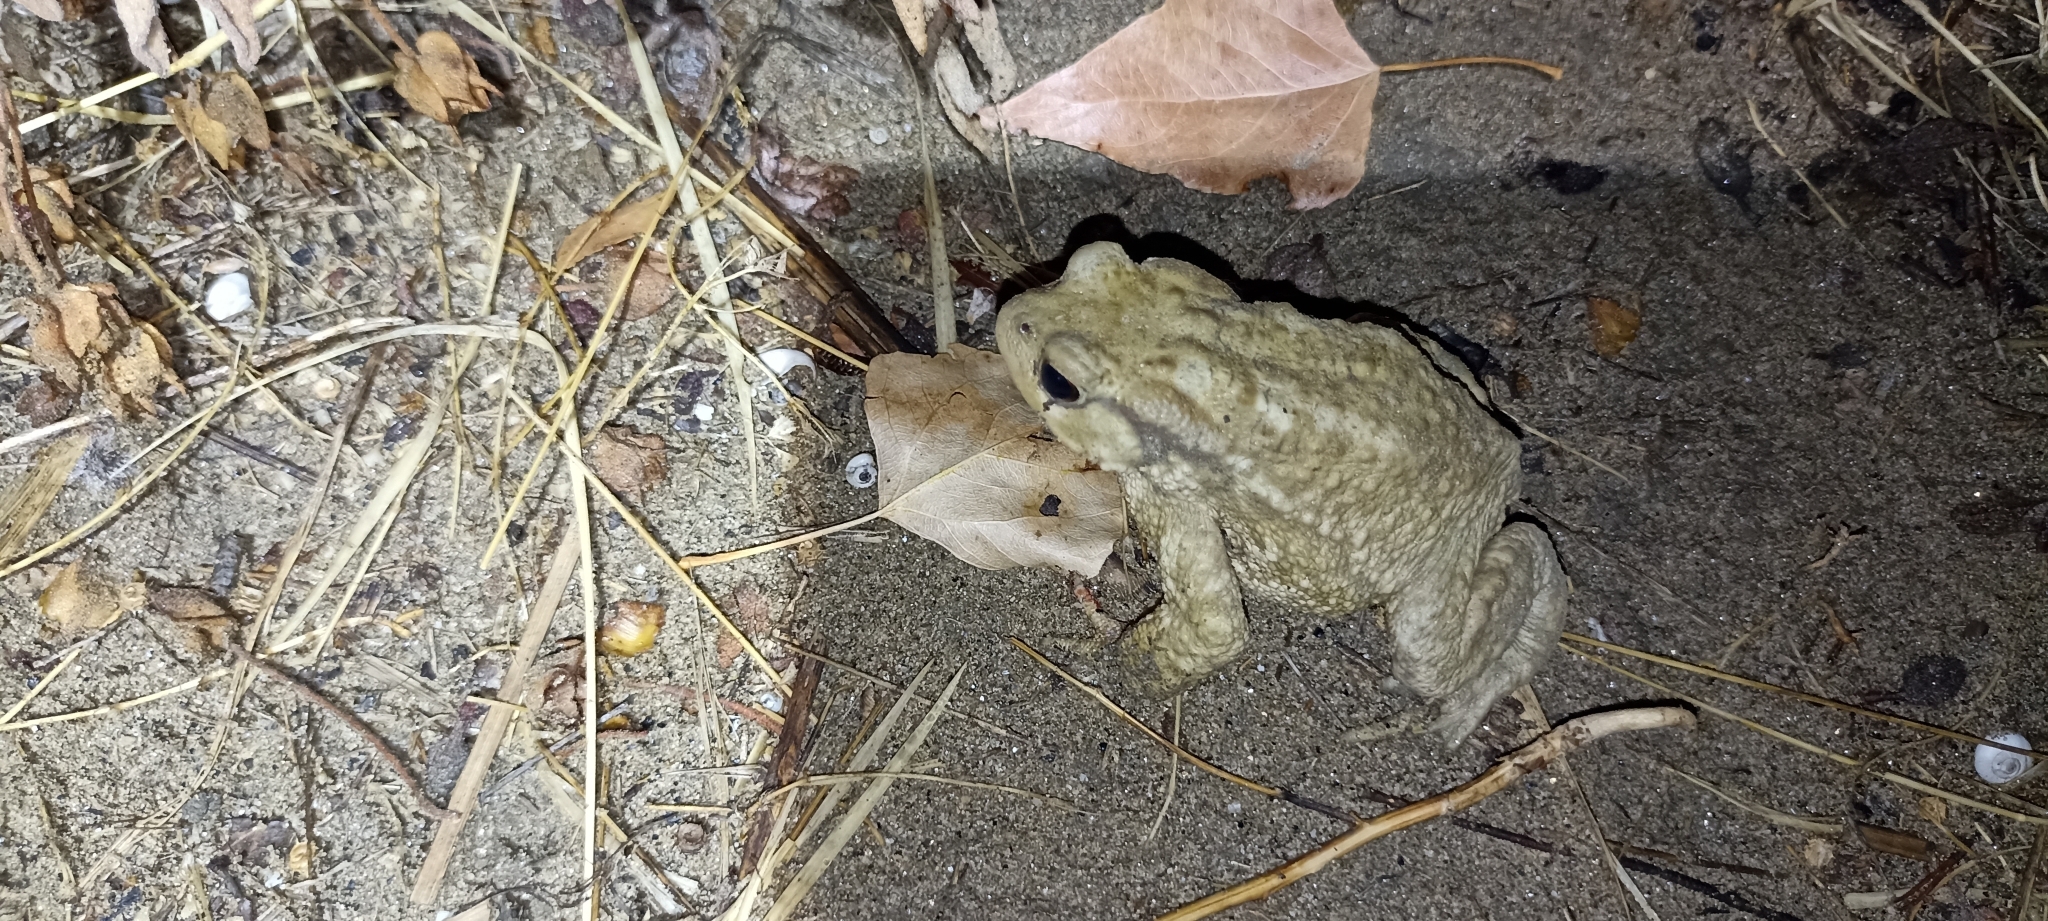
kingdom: Animalia
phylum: Chordata
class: Amphibia
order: Anura
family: Bufonidae
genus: Bufo
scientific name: Bufo spinosus
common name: Western common toad
